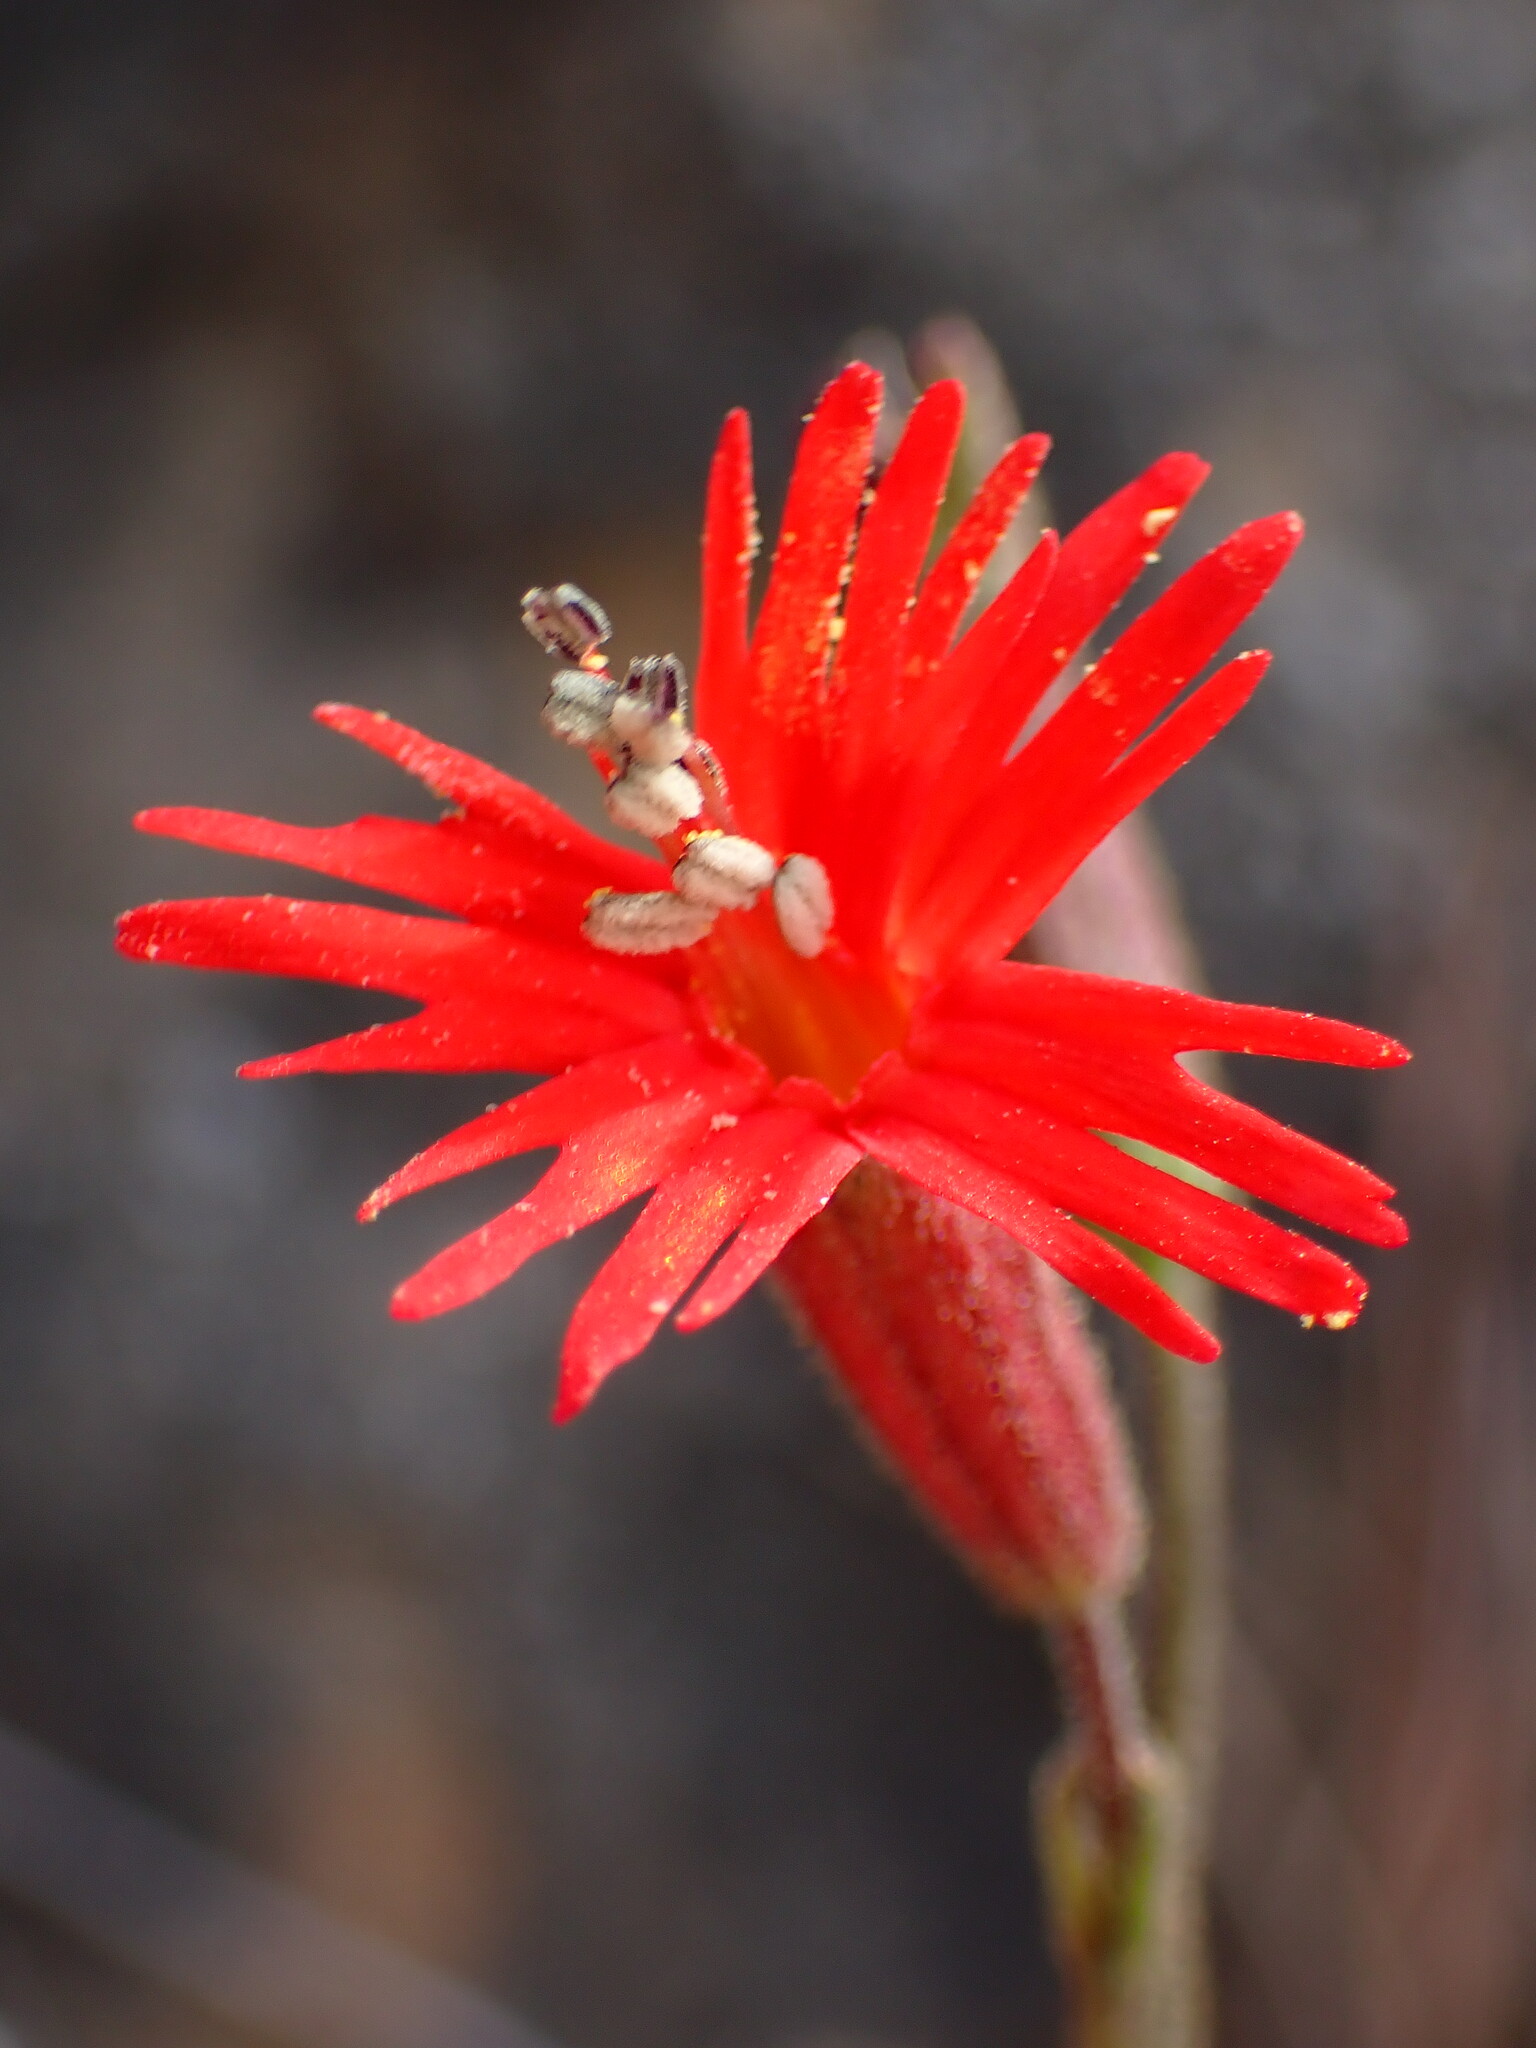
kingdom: Plantae
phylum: Tracheophyta
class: Magnoliopsida
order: Caryophyllales
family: Caryophyllaceae
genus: Silene
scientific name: Silene laciniata
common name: Indian-pink
